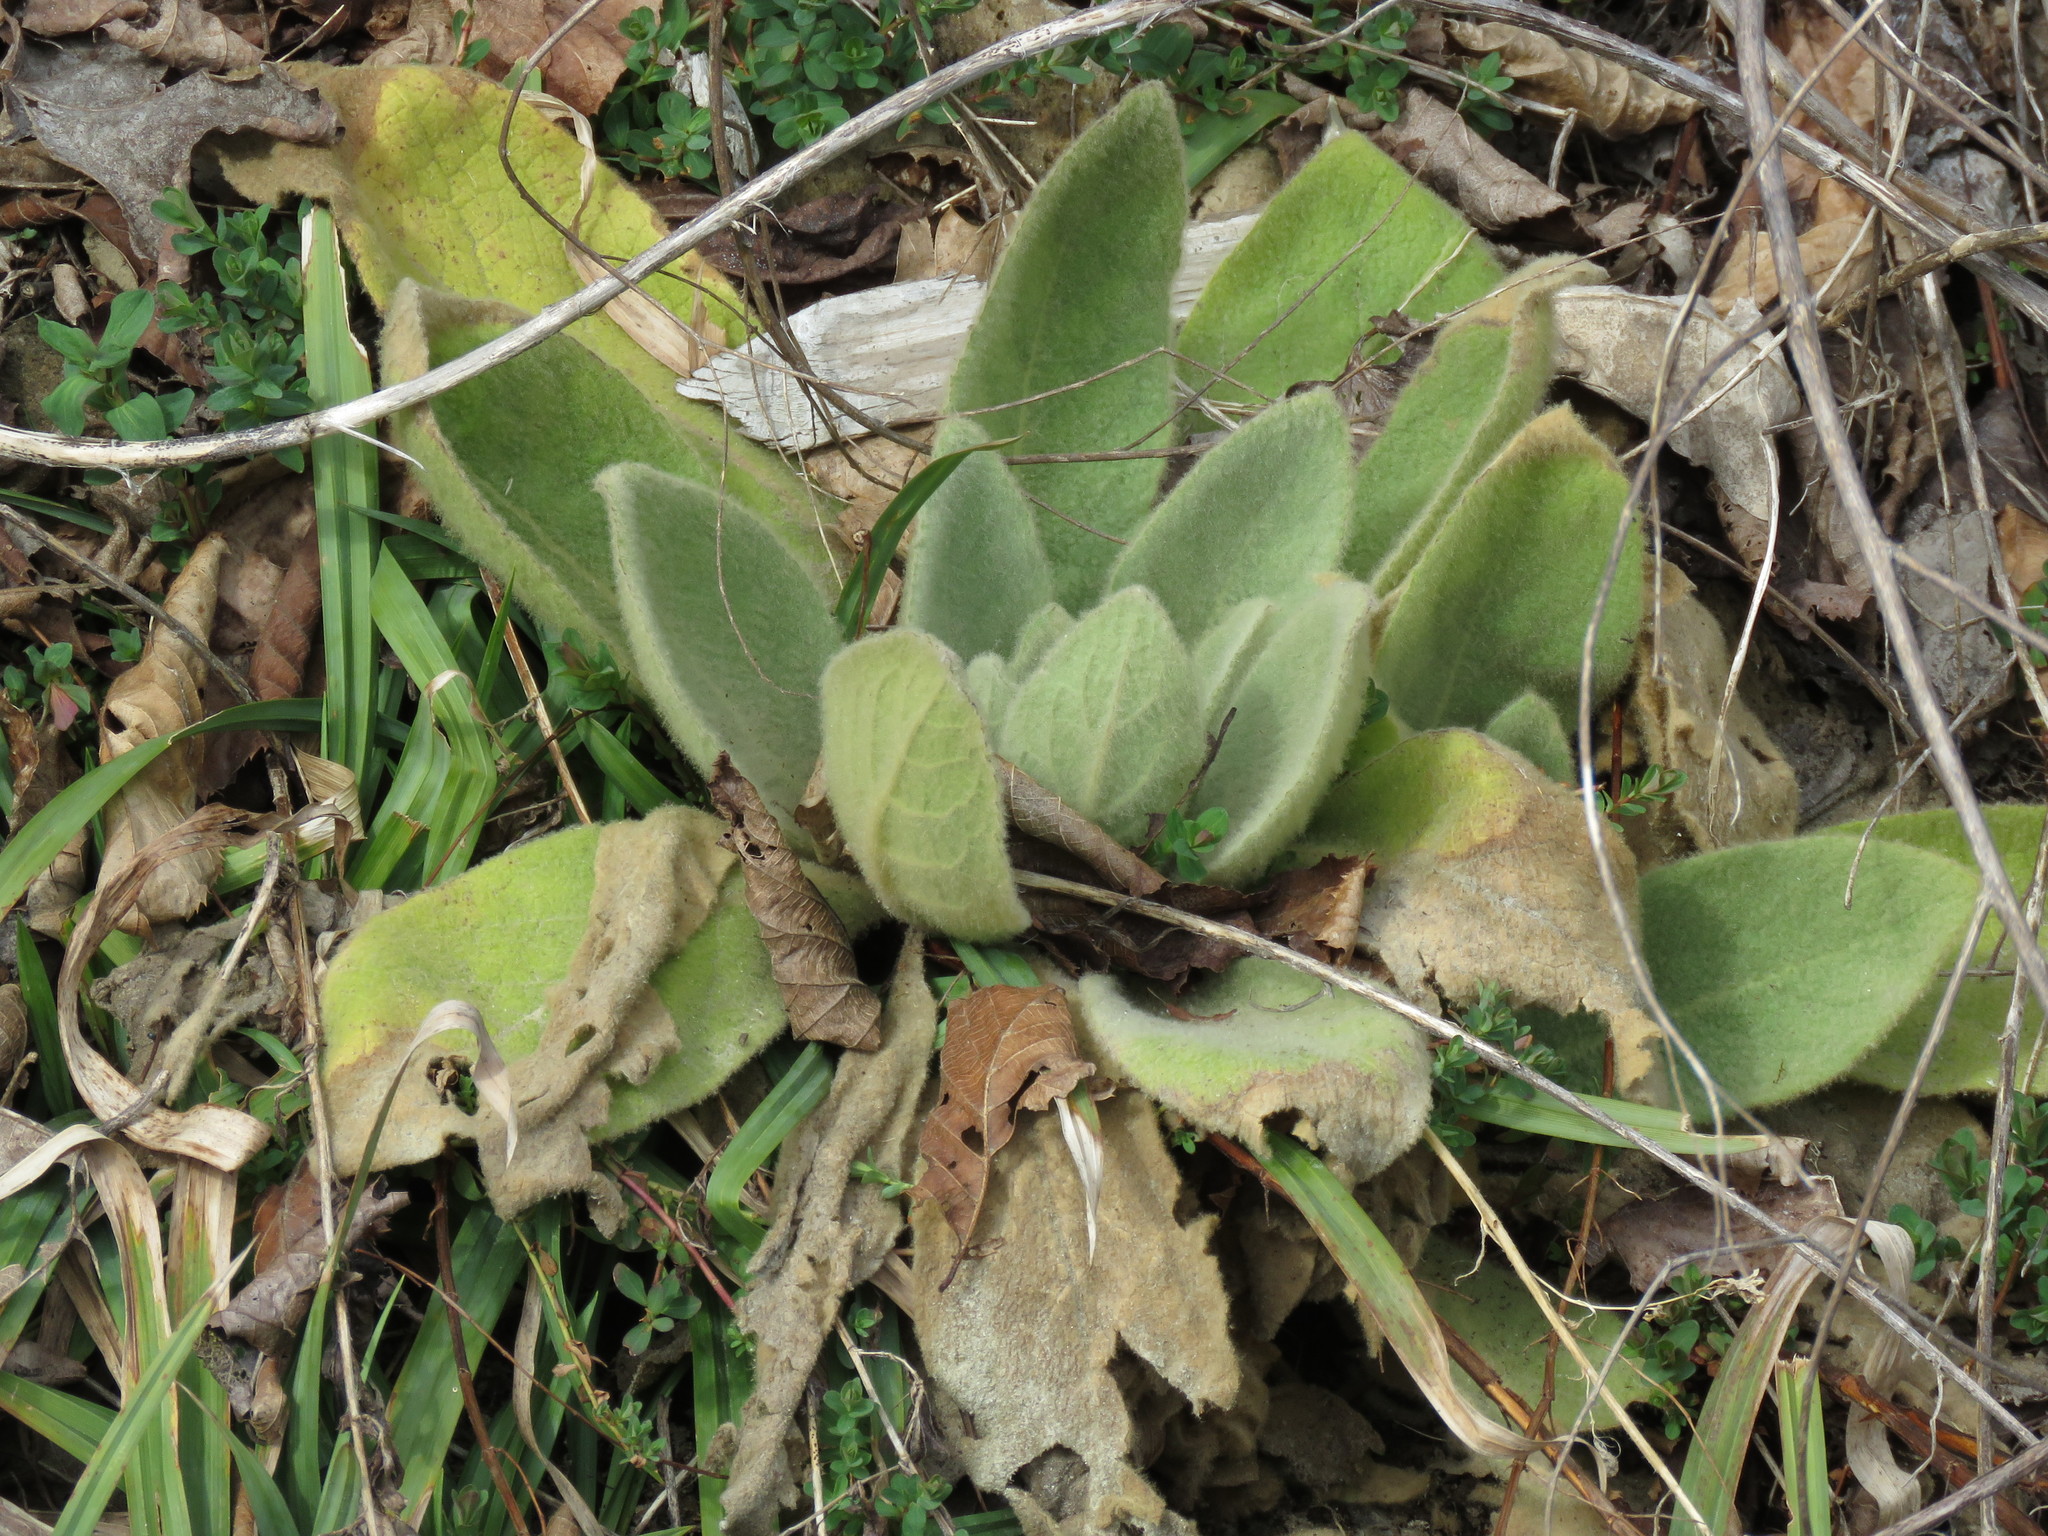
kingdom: Plantae
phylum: Tracheophyta
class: Magnoliopsida
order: Lamiales
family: Scrophulariaceae
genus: Verbascum
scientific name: Verbascum thapsus
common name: Common mullein
